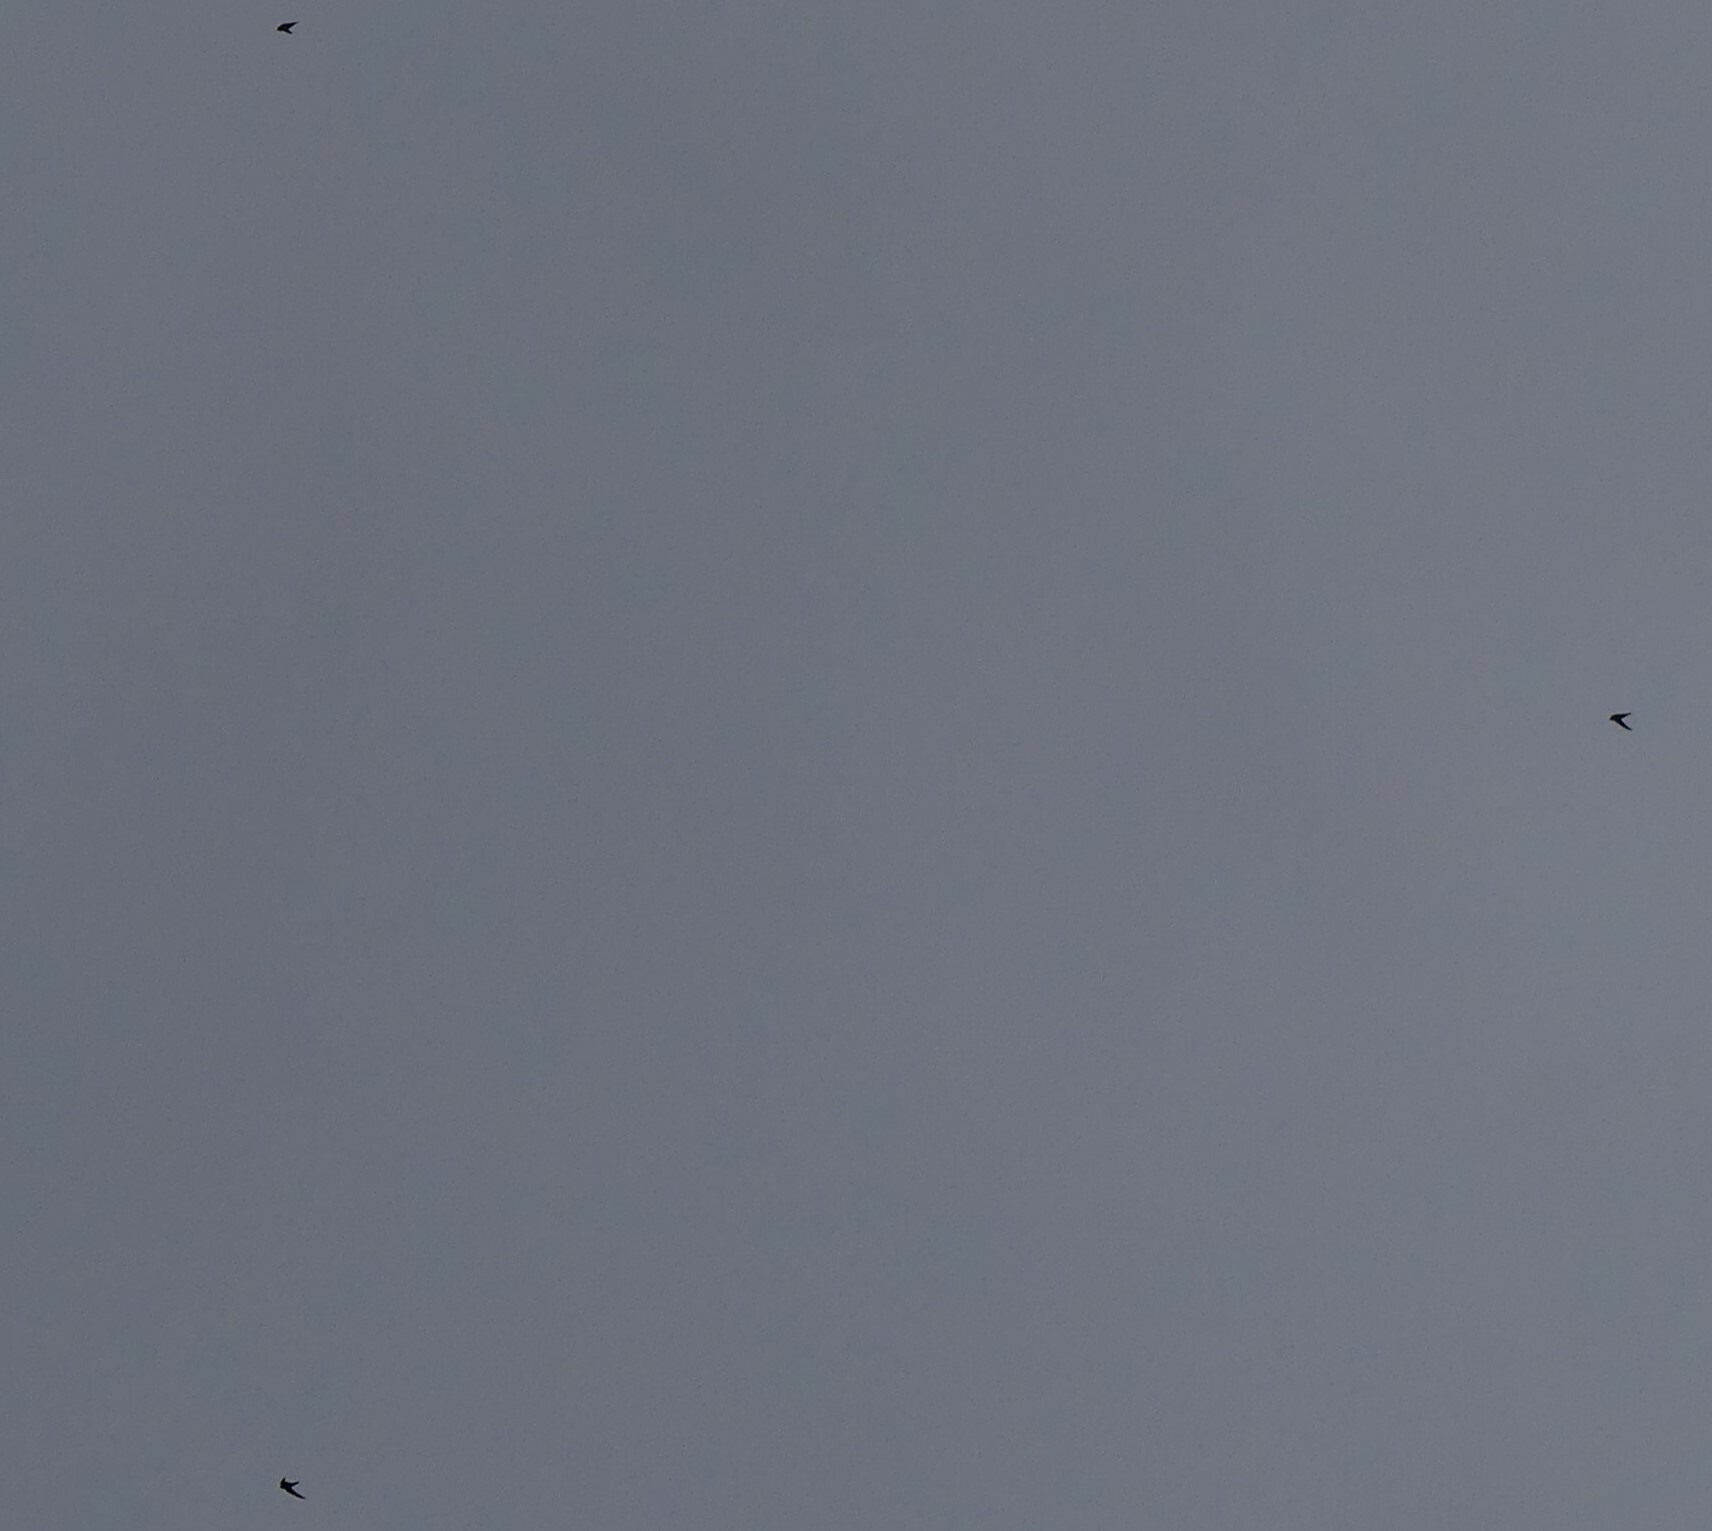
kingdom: Animalia
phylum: Chordata
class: Aves
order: Apodiformes
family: Apodidae
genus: Cypseloides
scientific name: Cypseloides niger
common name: Black swift
